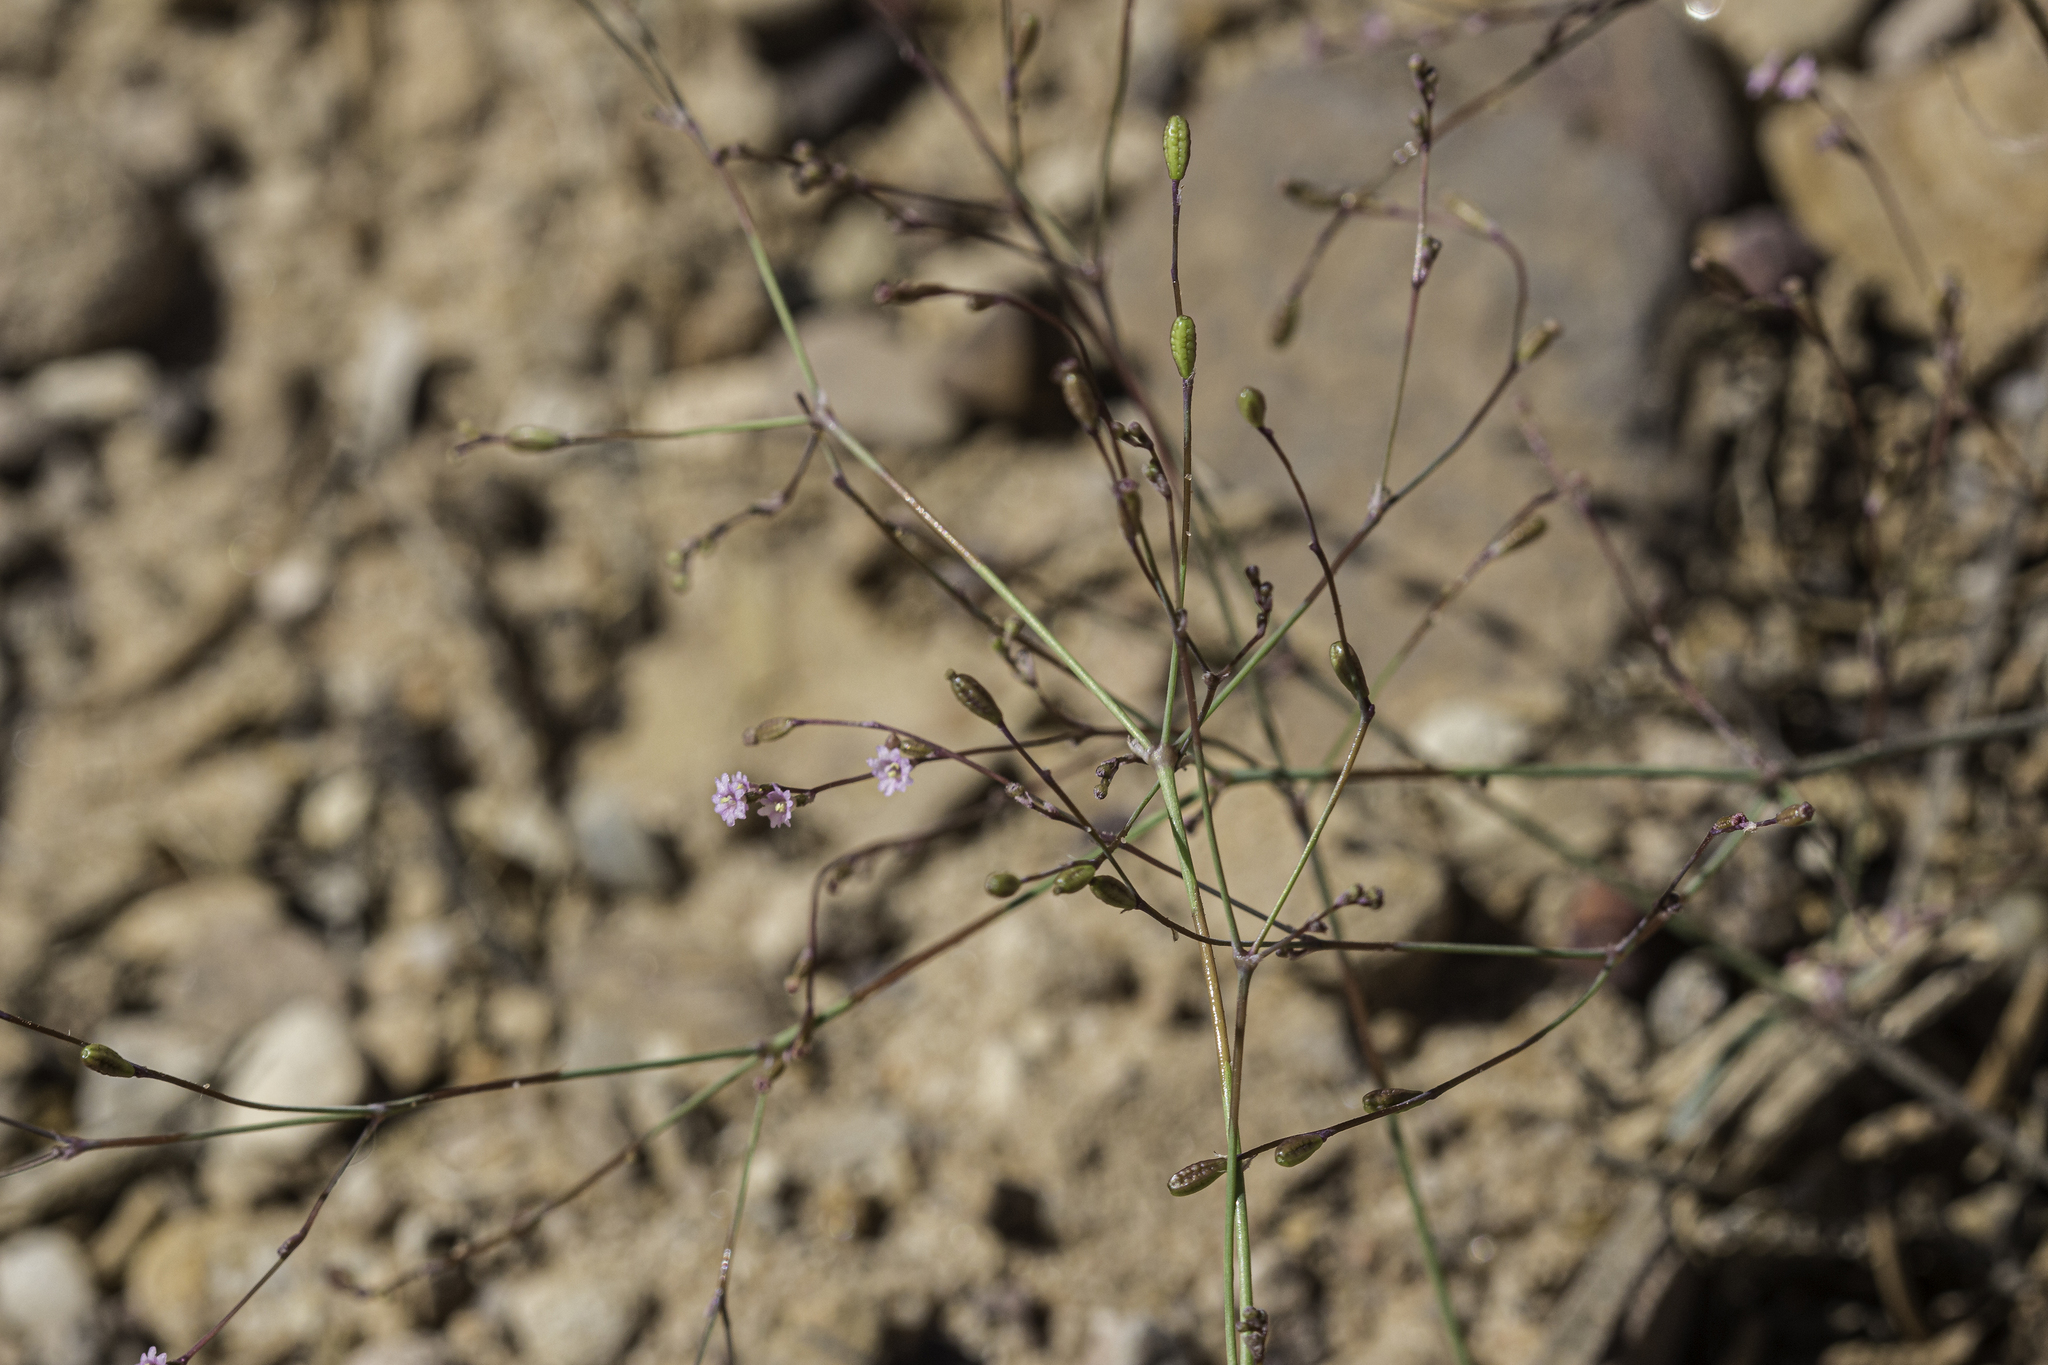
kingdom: Plantae
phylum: Tracheophyta
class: Magnoliopsida
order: Caryophyllales
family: Nyctaginaceae
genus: Boerhavia
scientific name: Boerhavia torreyana
